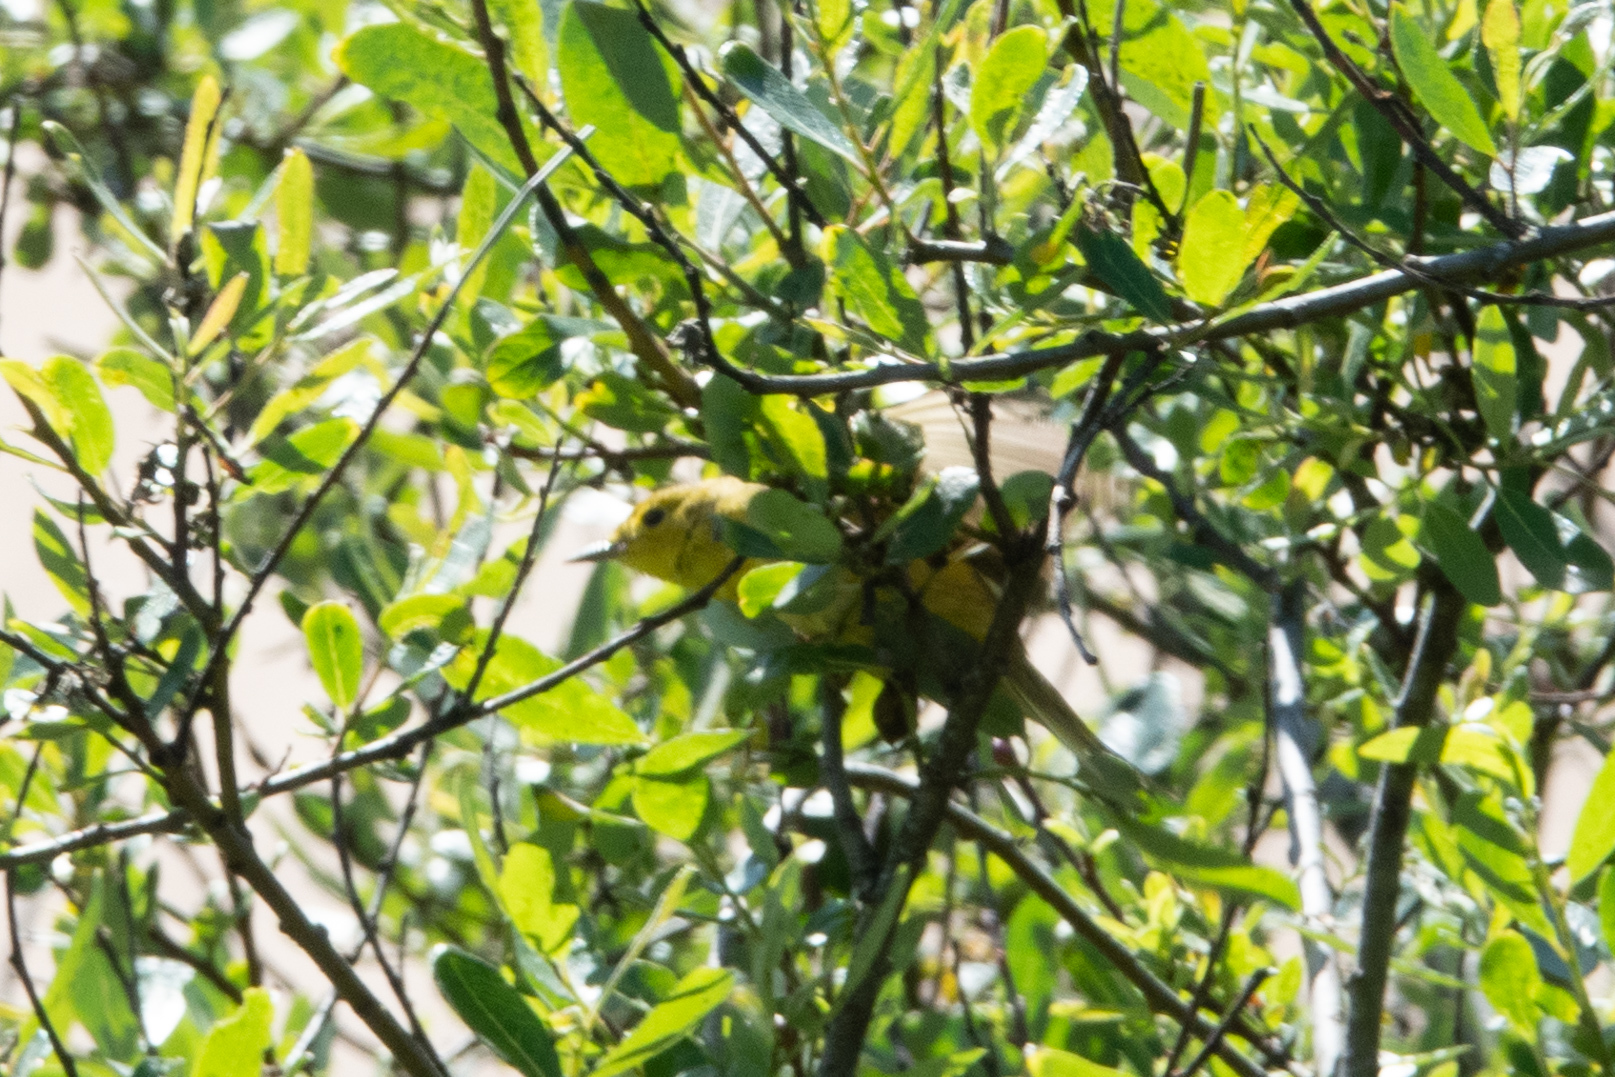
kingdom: Animalia
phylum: Chordata
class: Aves
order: Passeriformes
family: Parulidae
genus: Setophaga
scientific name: Setophaga petechia
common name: Yellow warbler
